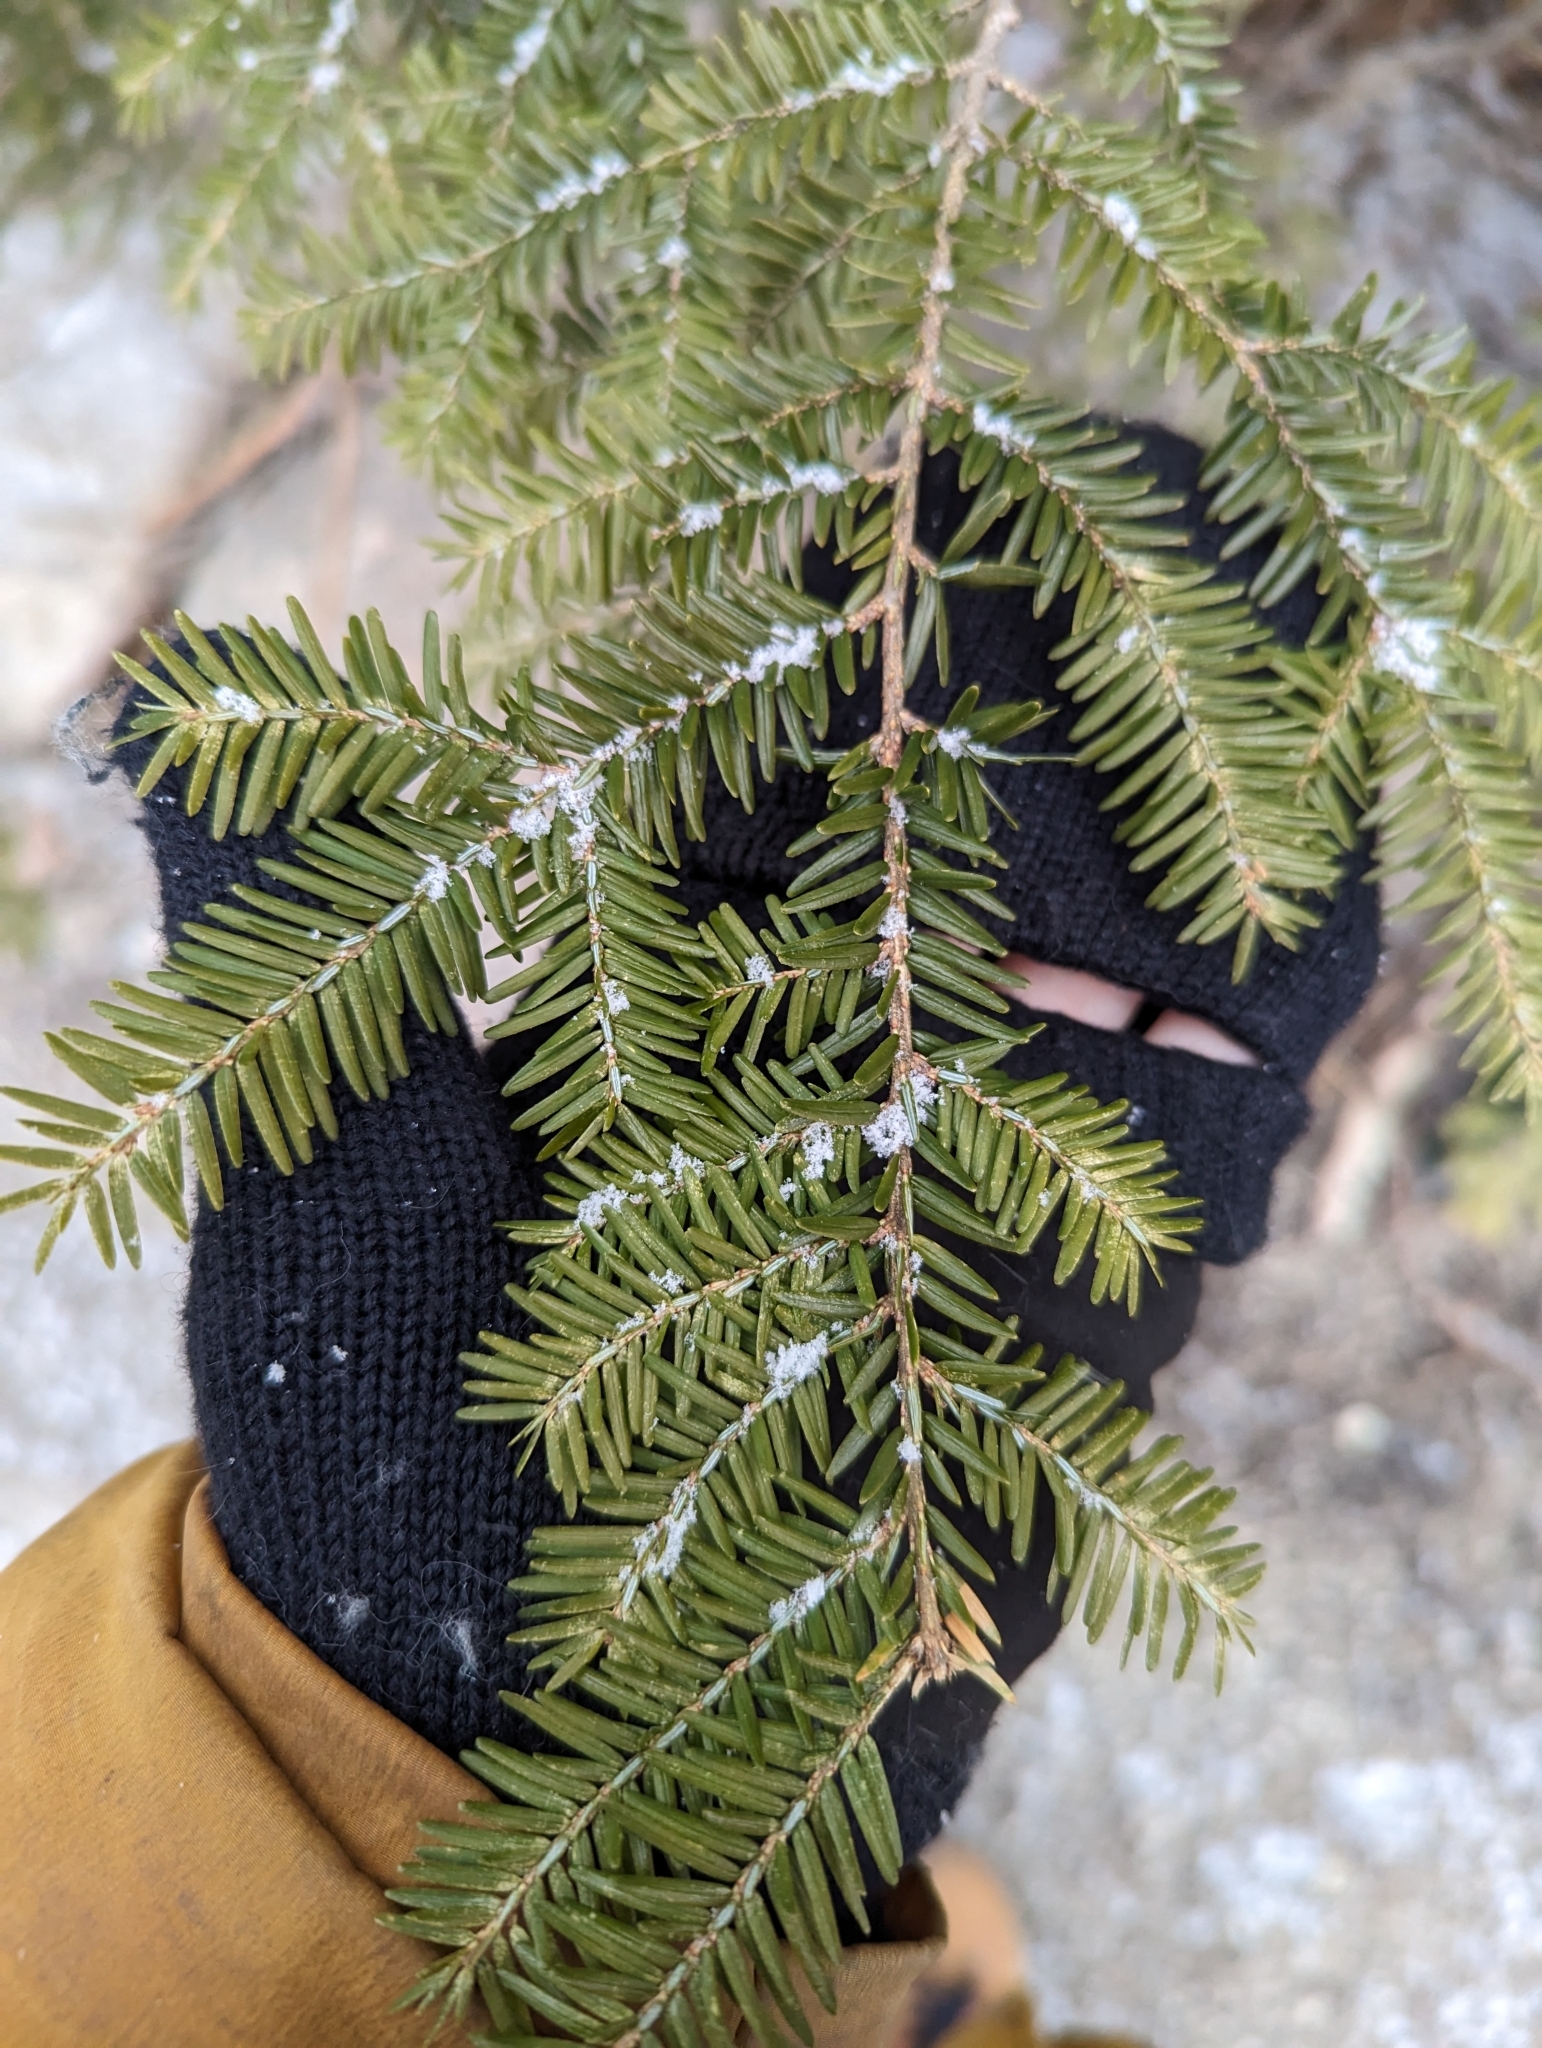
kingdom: Plantae
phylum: Tracheophyta
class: Pinopsida
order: Pinales
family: Pinaceae
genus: Tsuga
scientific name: Tsuga canadensis
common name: Eastern hemlock
